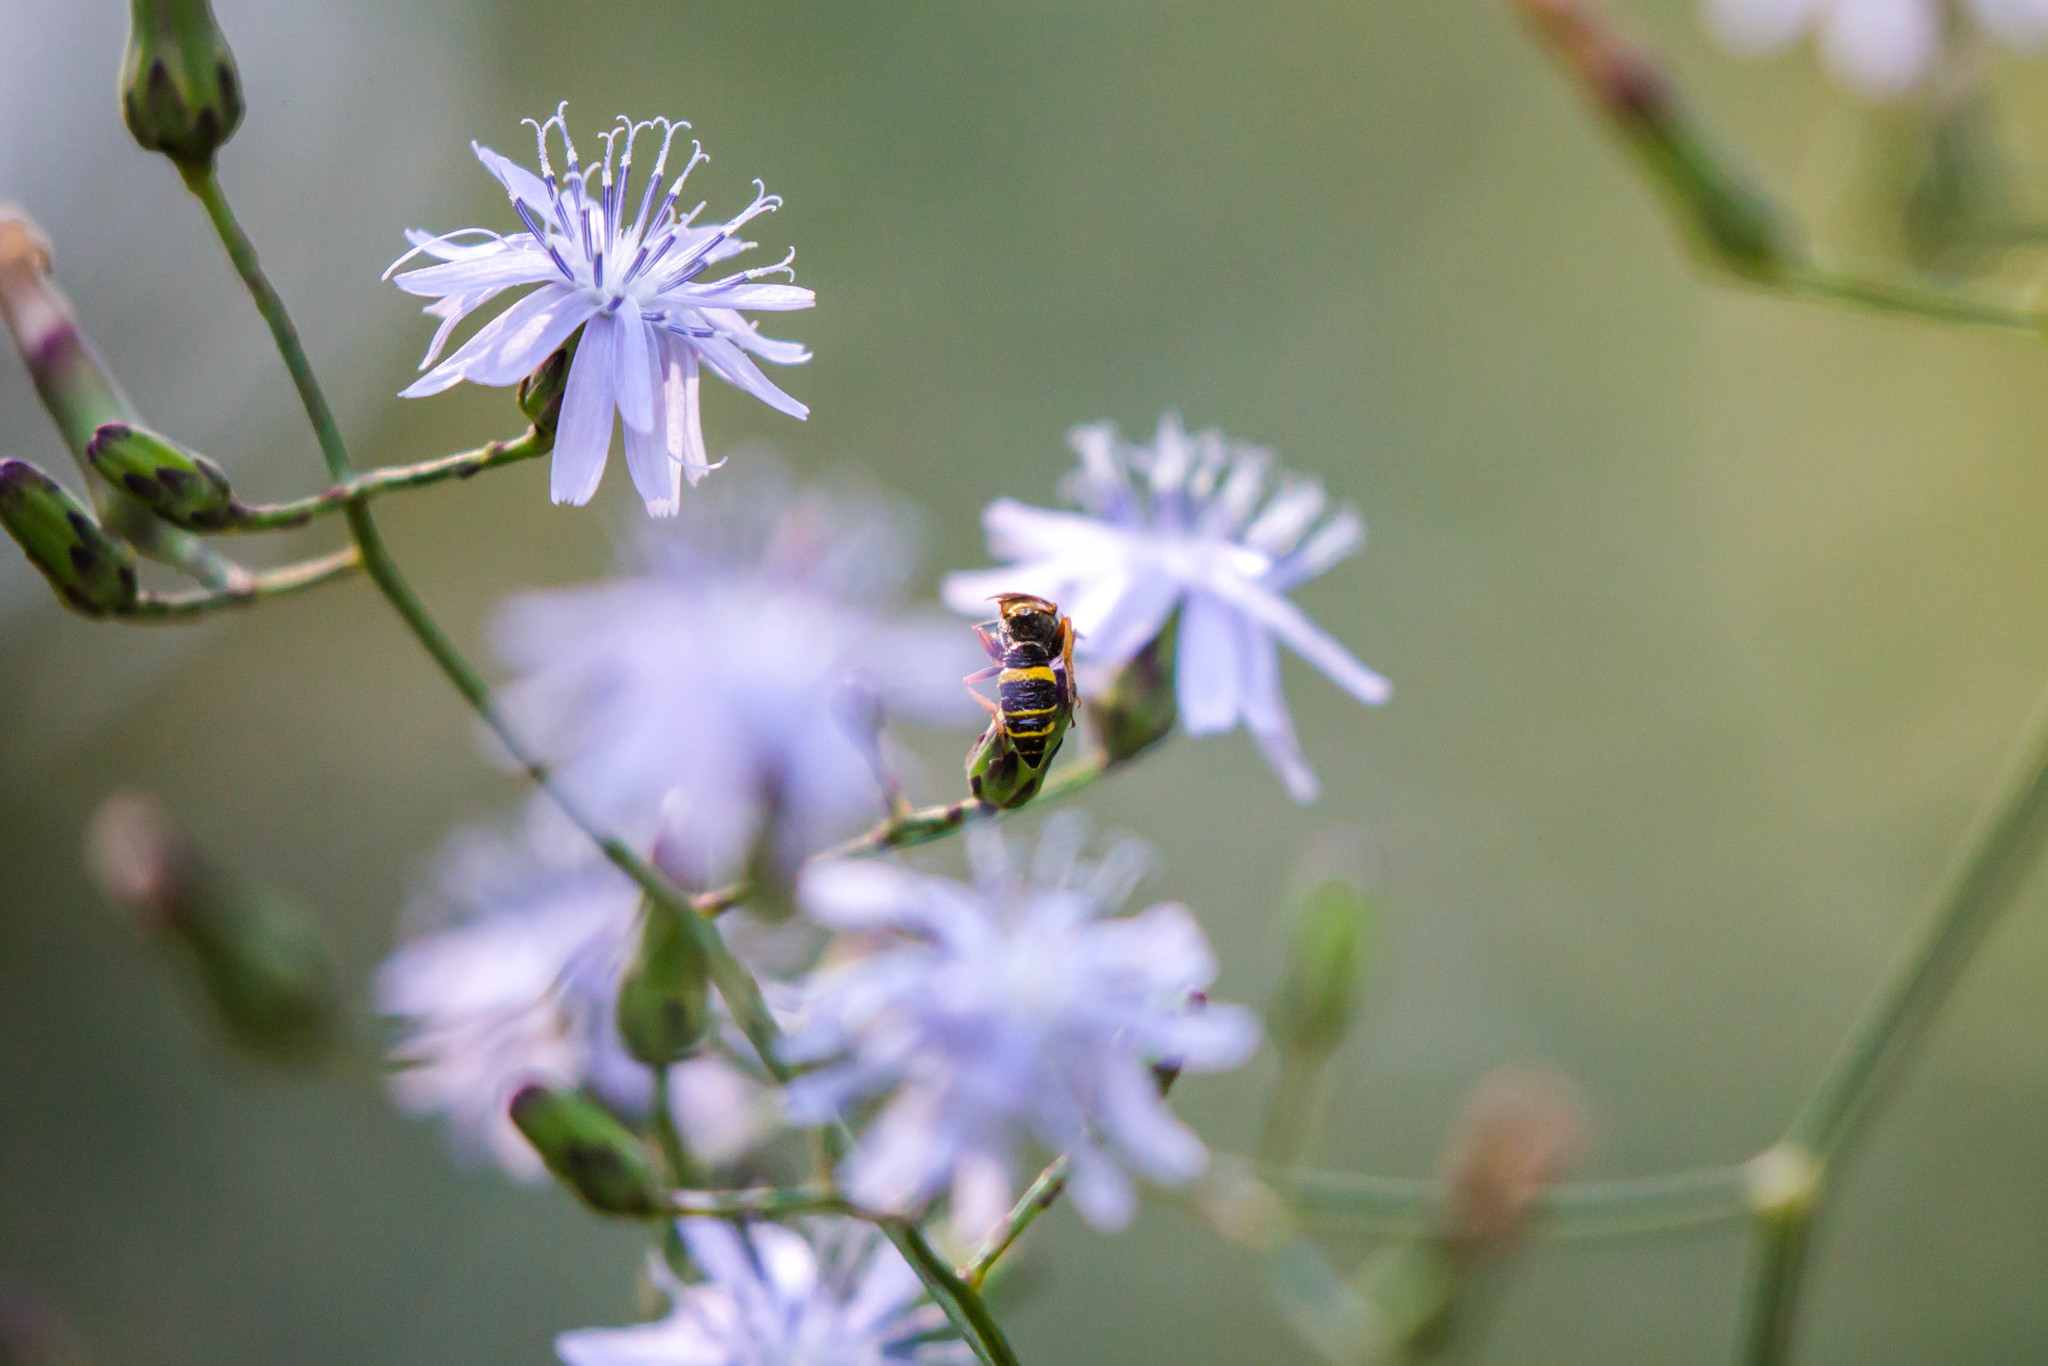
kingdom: Animalia
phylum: Arthropoda
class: Insecta
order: Hymenoptera
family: Crabronidae
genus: Philanthus
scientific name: Philanthus gibbosus
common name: Humped beewolf
